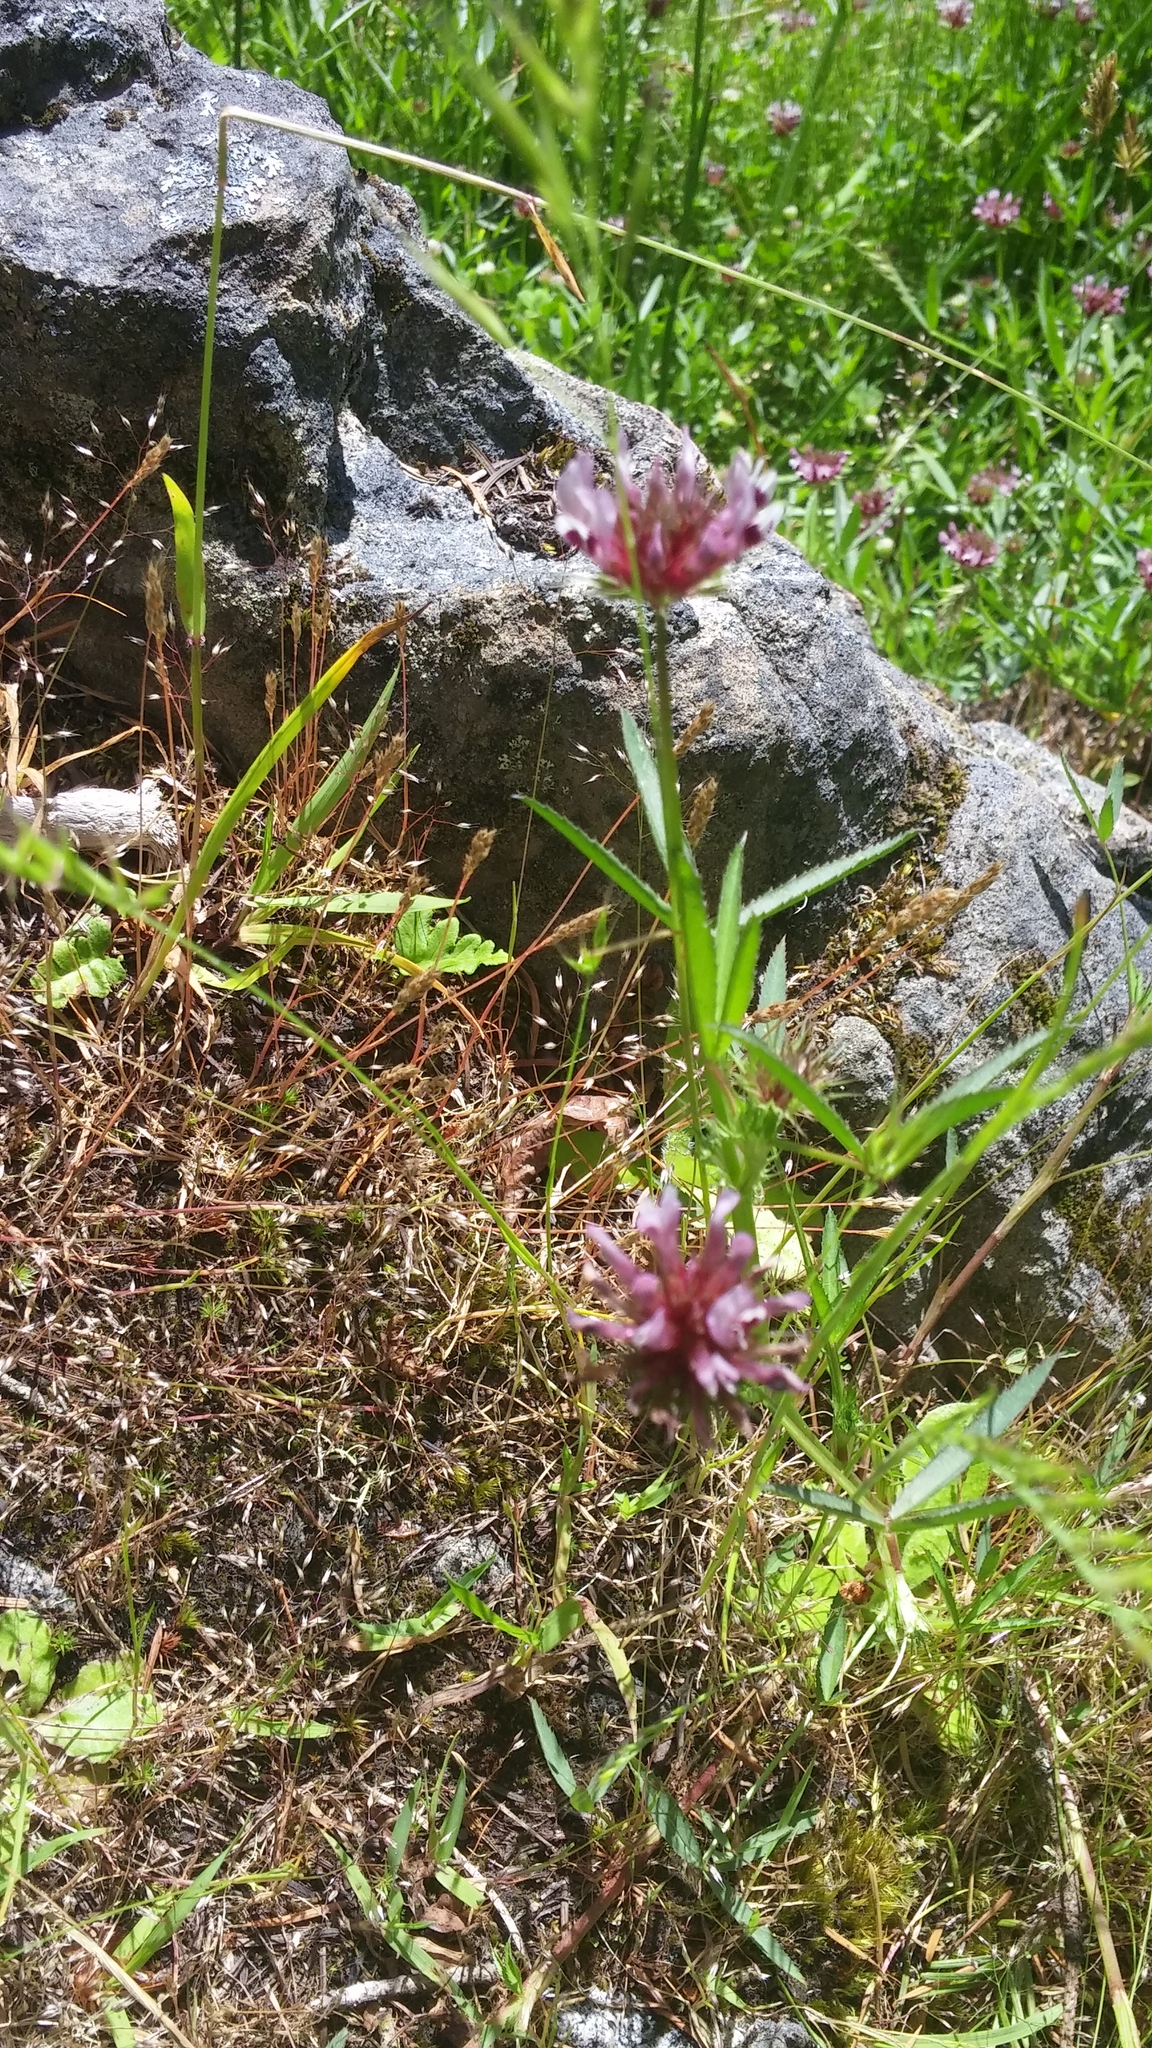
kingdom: Plantae
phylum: Tracheophyta
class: Magnoliopsida
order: Fabales
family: Fabaceae
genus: Trifolium
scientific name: Trifolium willdenovii
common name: Tomcat clover
